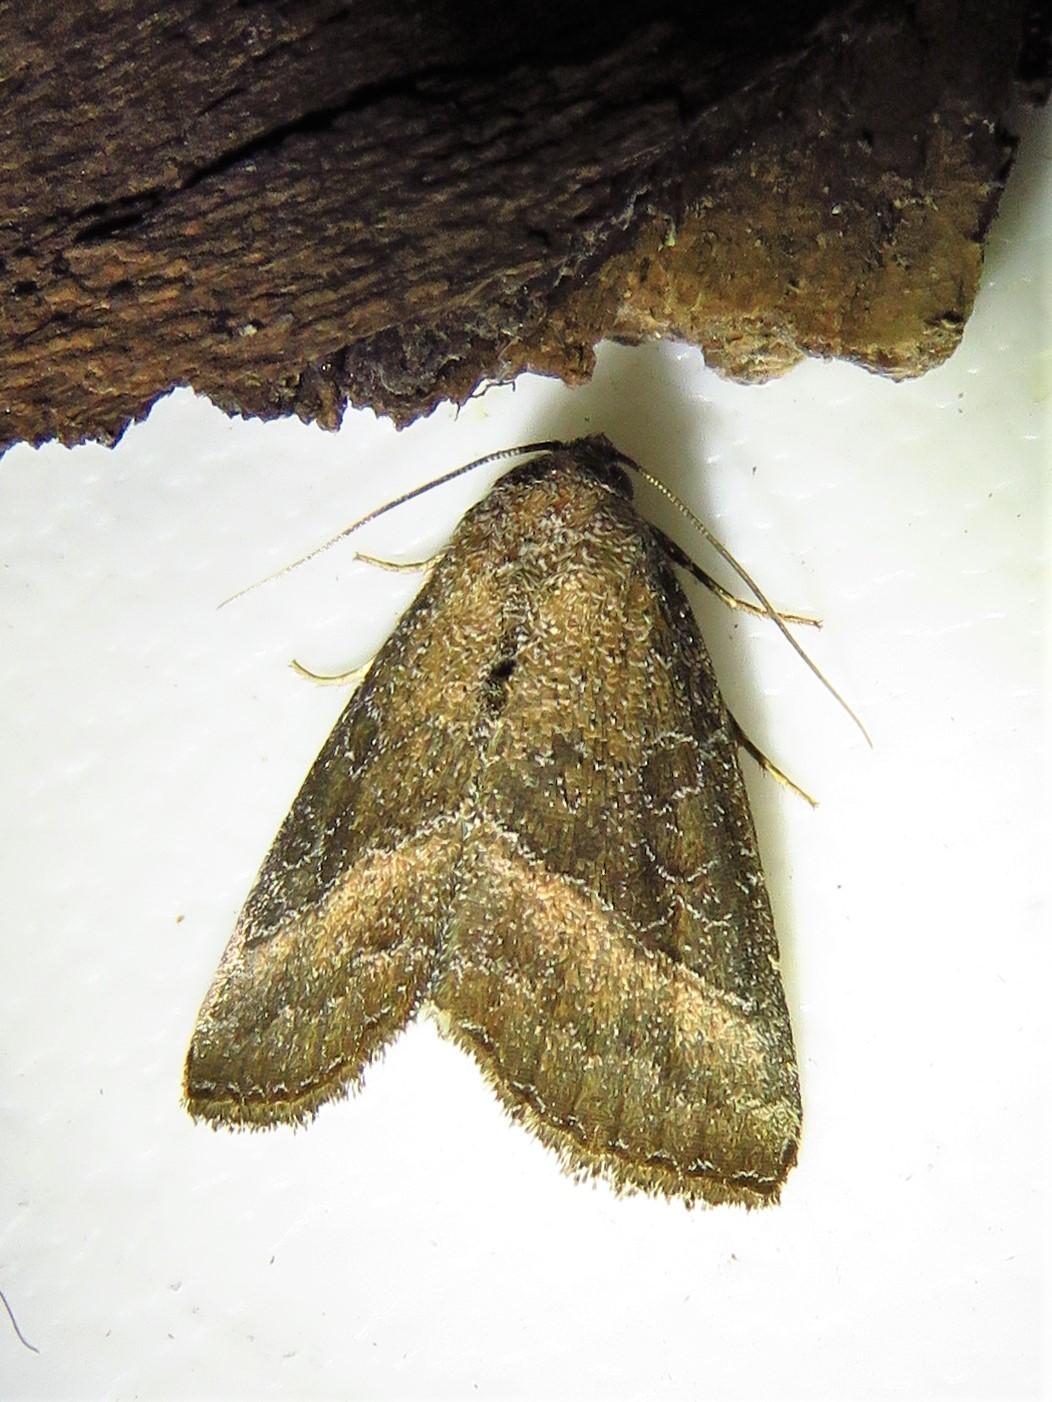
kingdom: Animalia
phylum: Arthropoda
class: Insecta
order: Lepidoptera
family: Noctuidae
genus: Ogdoconta
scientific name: Ogdoconta cinereola
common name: Common pinkband
